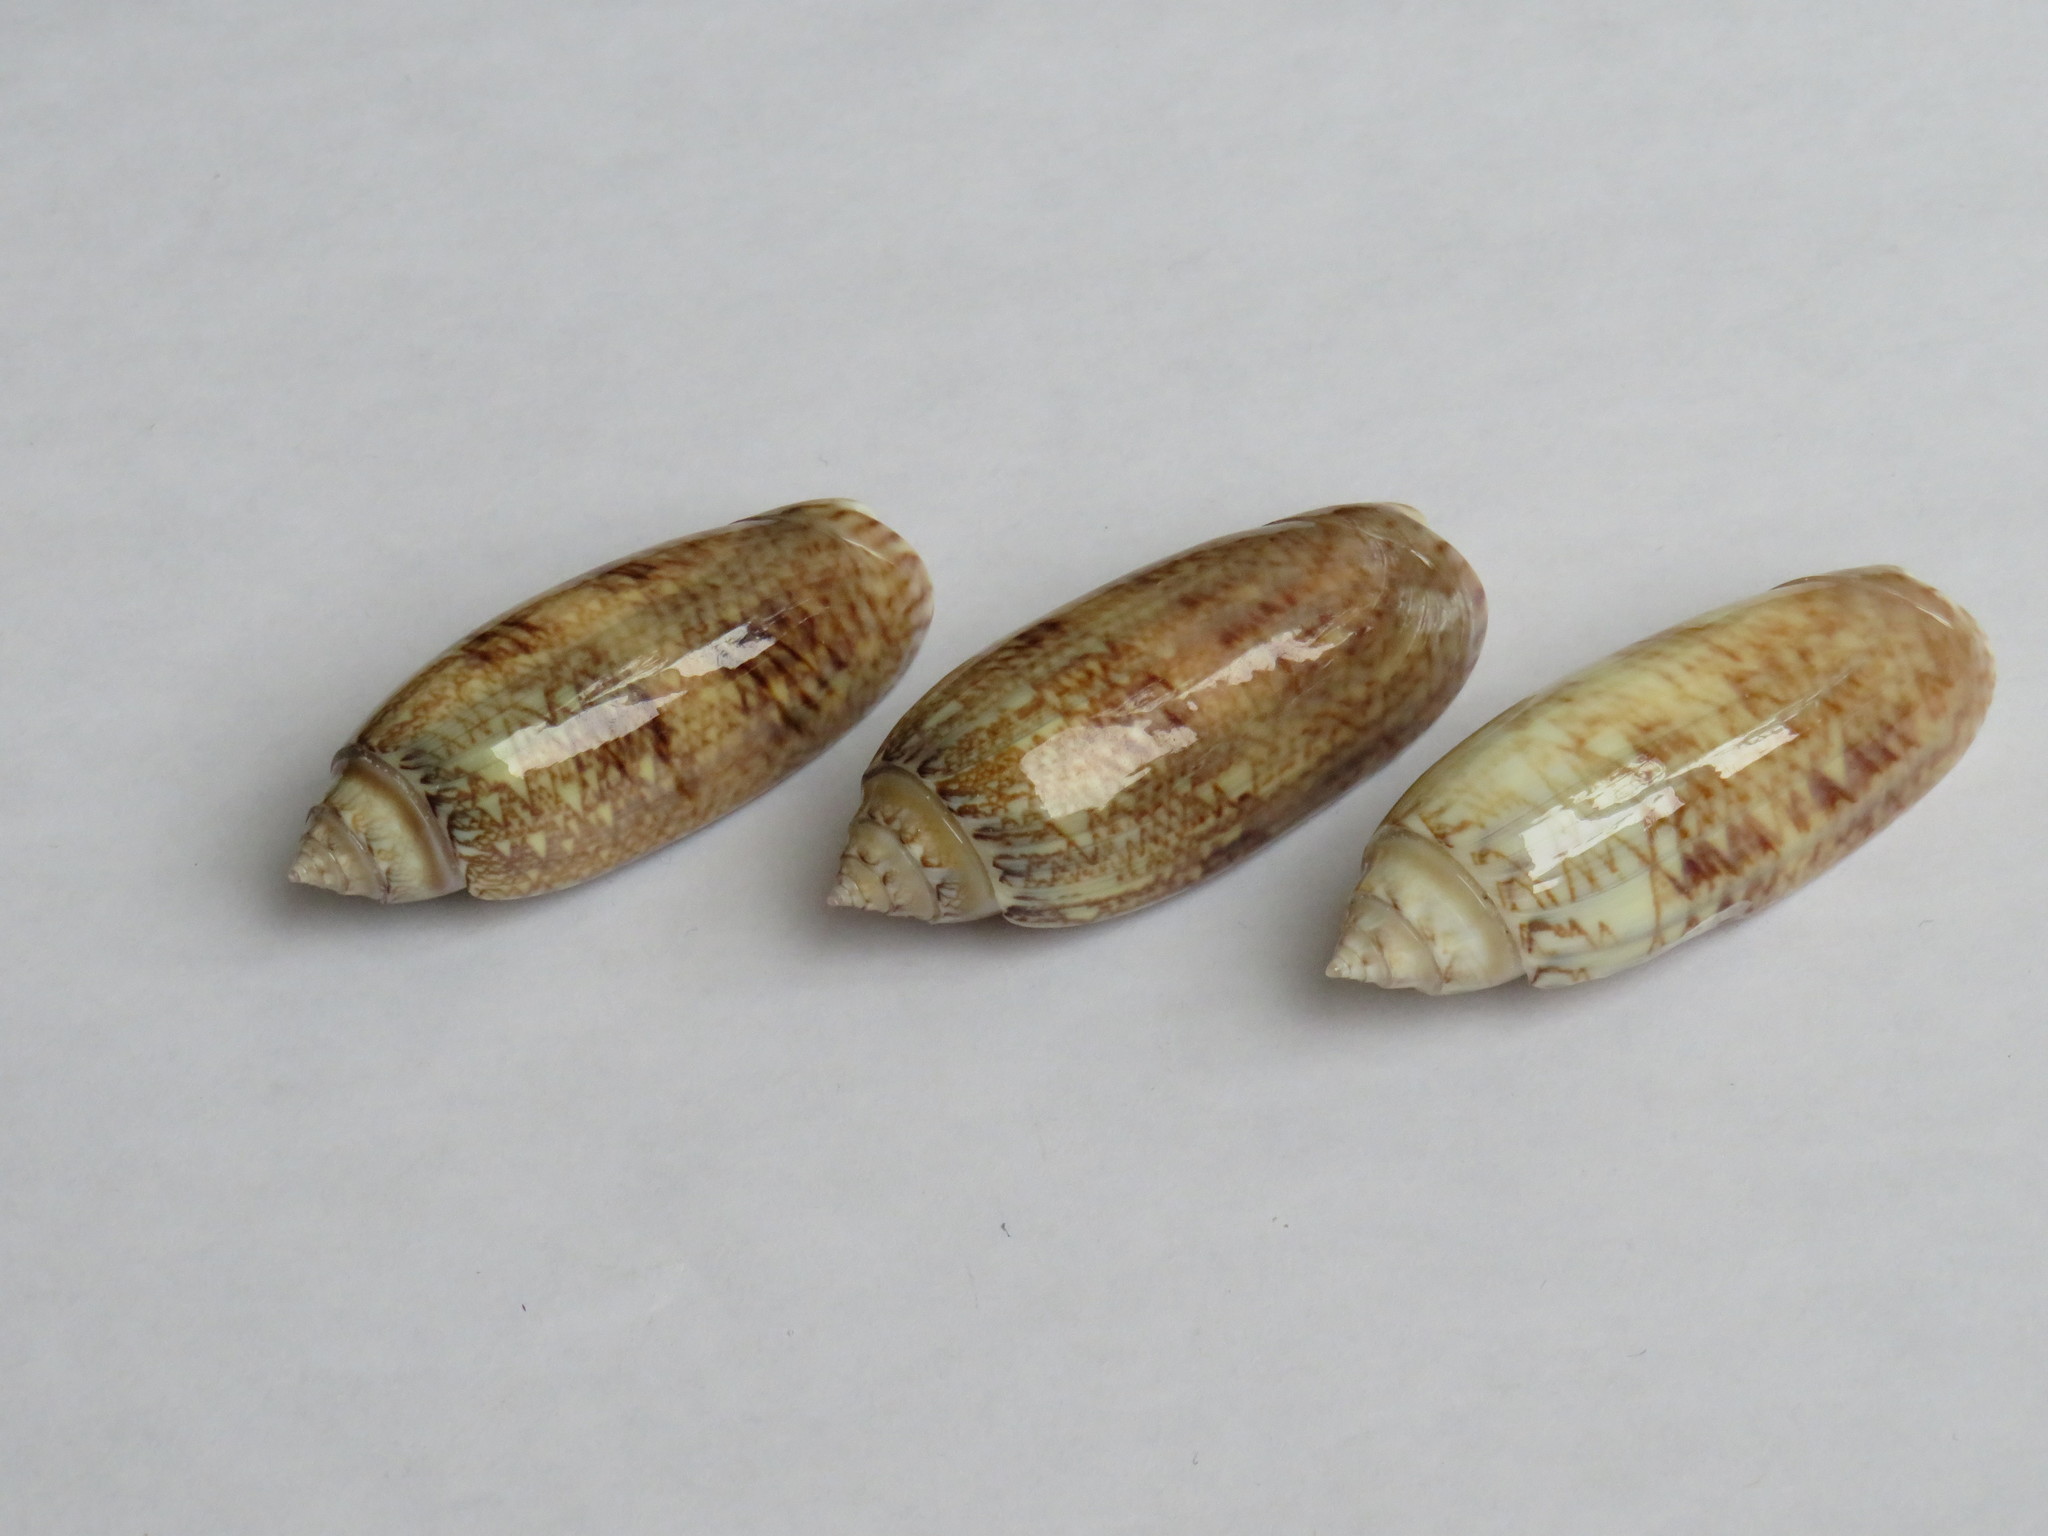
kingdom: Animalia
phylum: Mollusca
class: Gastropoda
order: Neogastropoda
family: Olividae
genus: Oliva
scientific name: Oliva sayana
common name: Lettered olive
